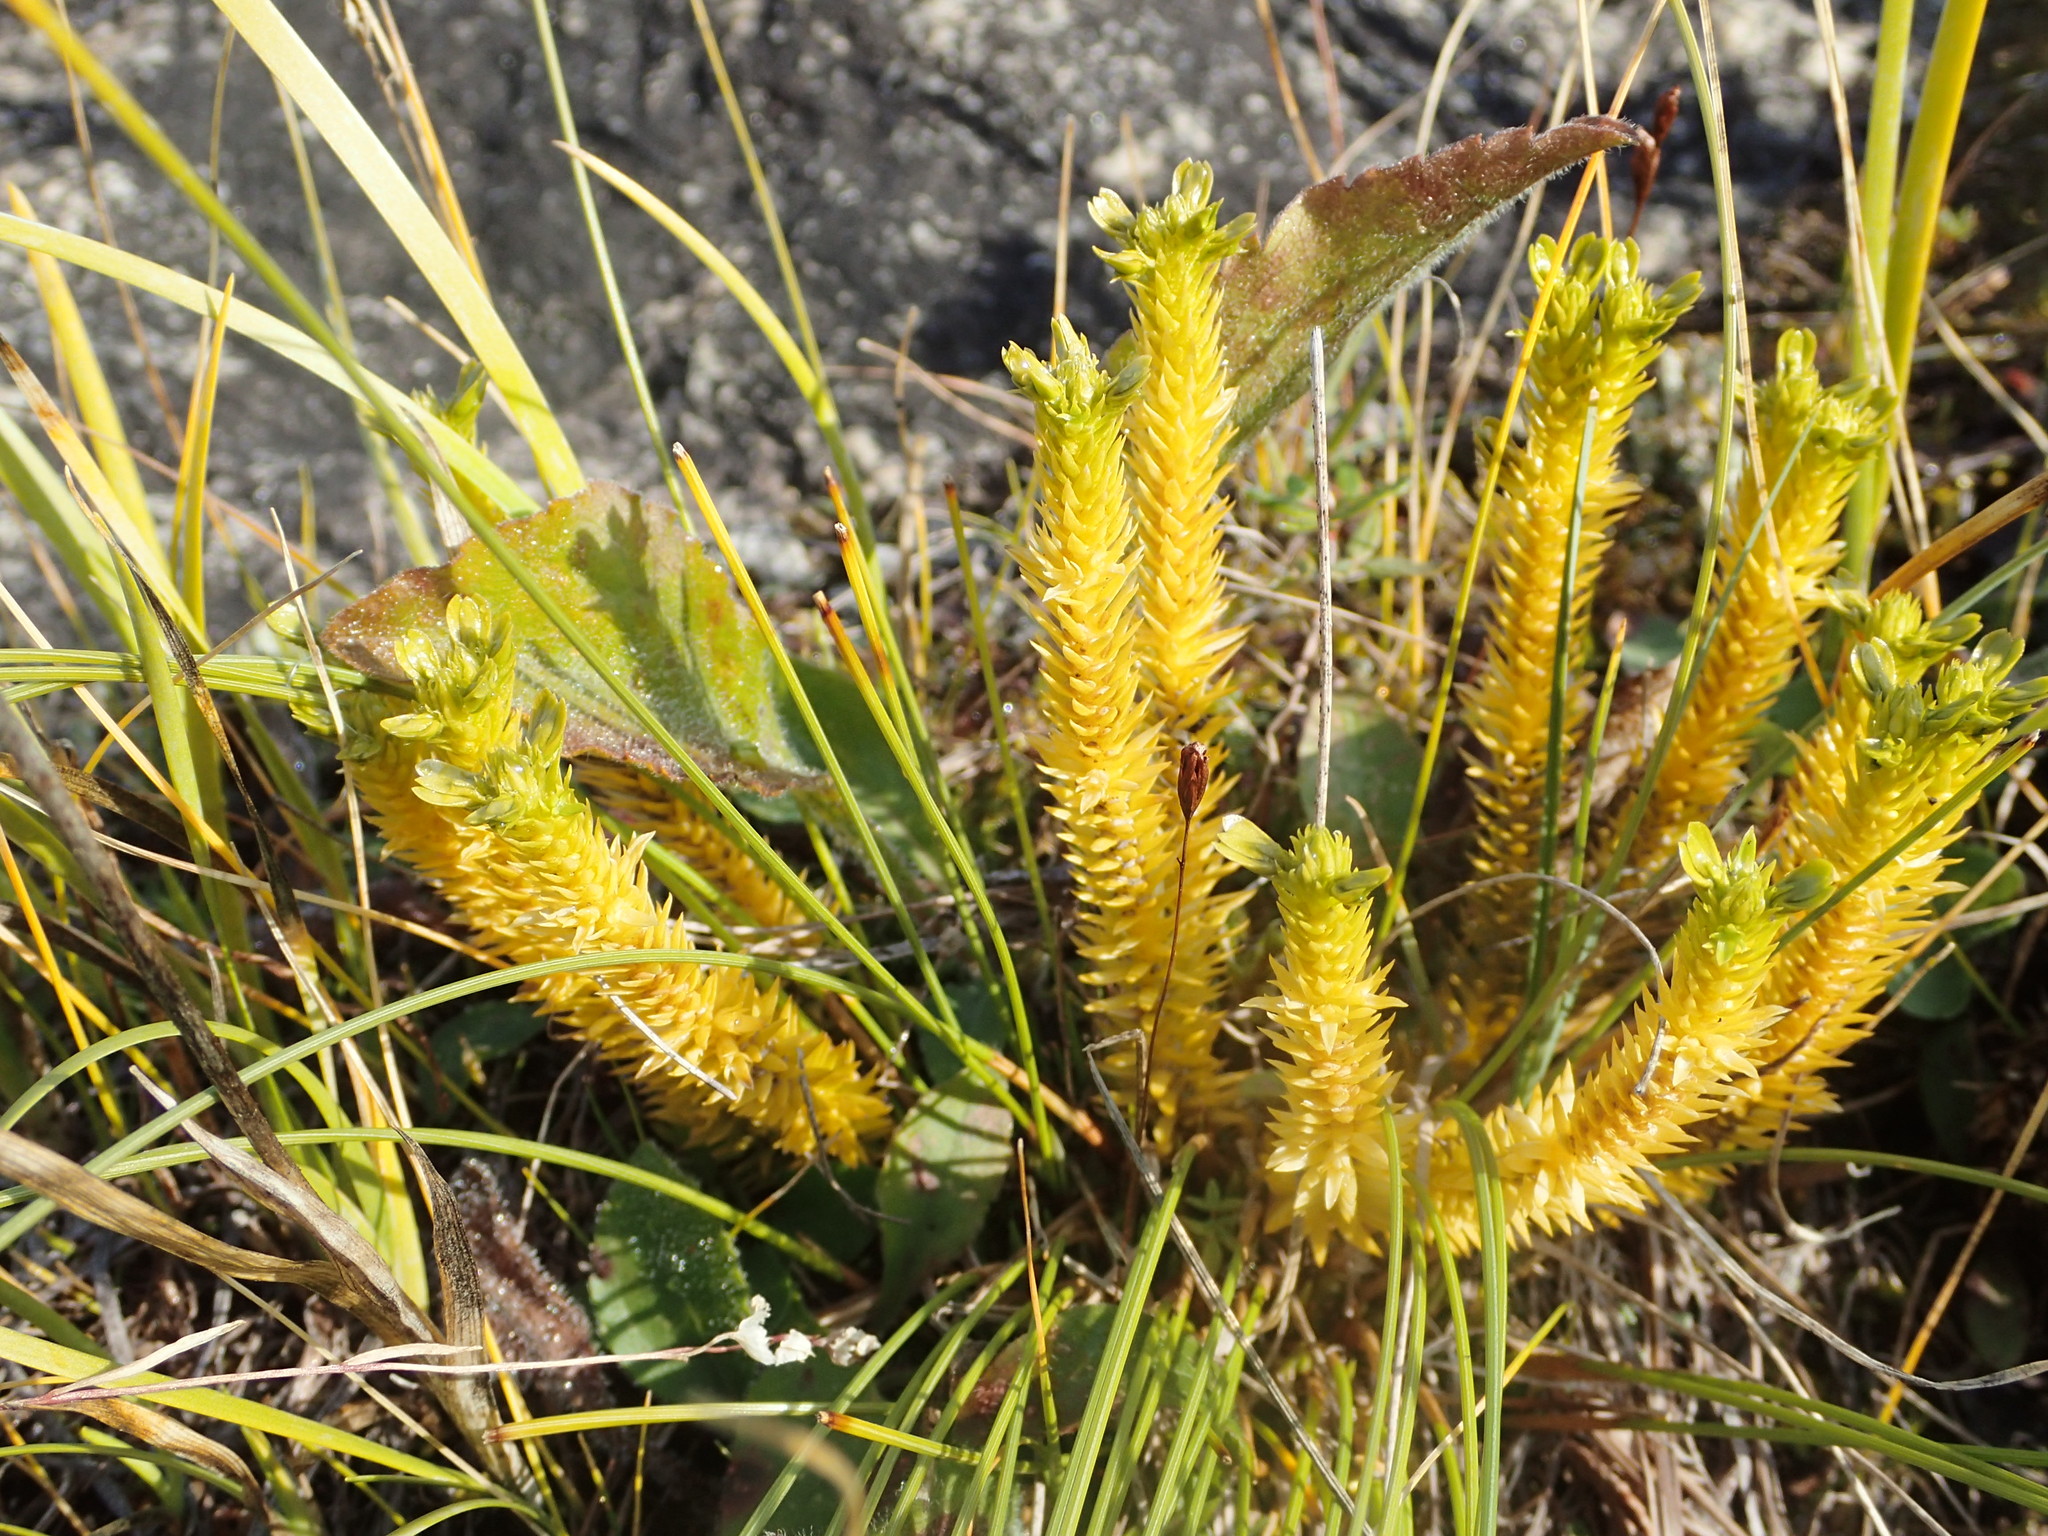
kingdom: Plantae
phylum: Tracheophyta
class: Lycopodiopsida
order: Lycopodiales
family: Lycopodiaceae
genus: Huperzia
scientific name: Huperzia selago
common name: Northern firmoss
